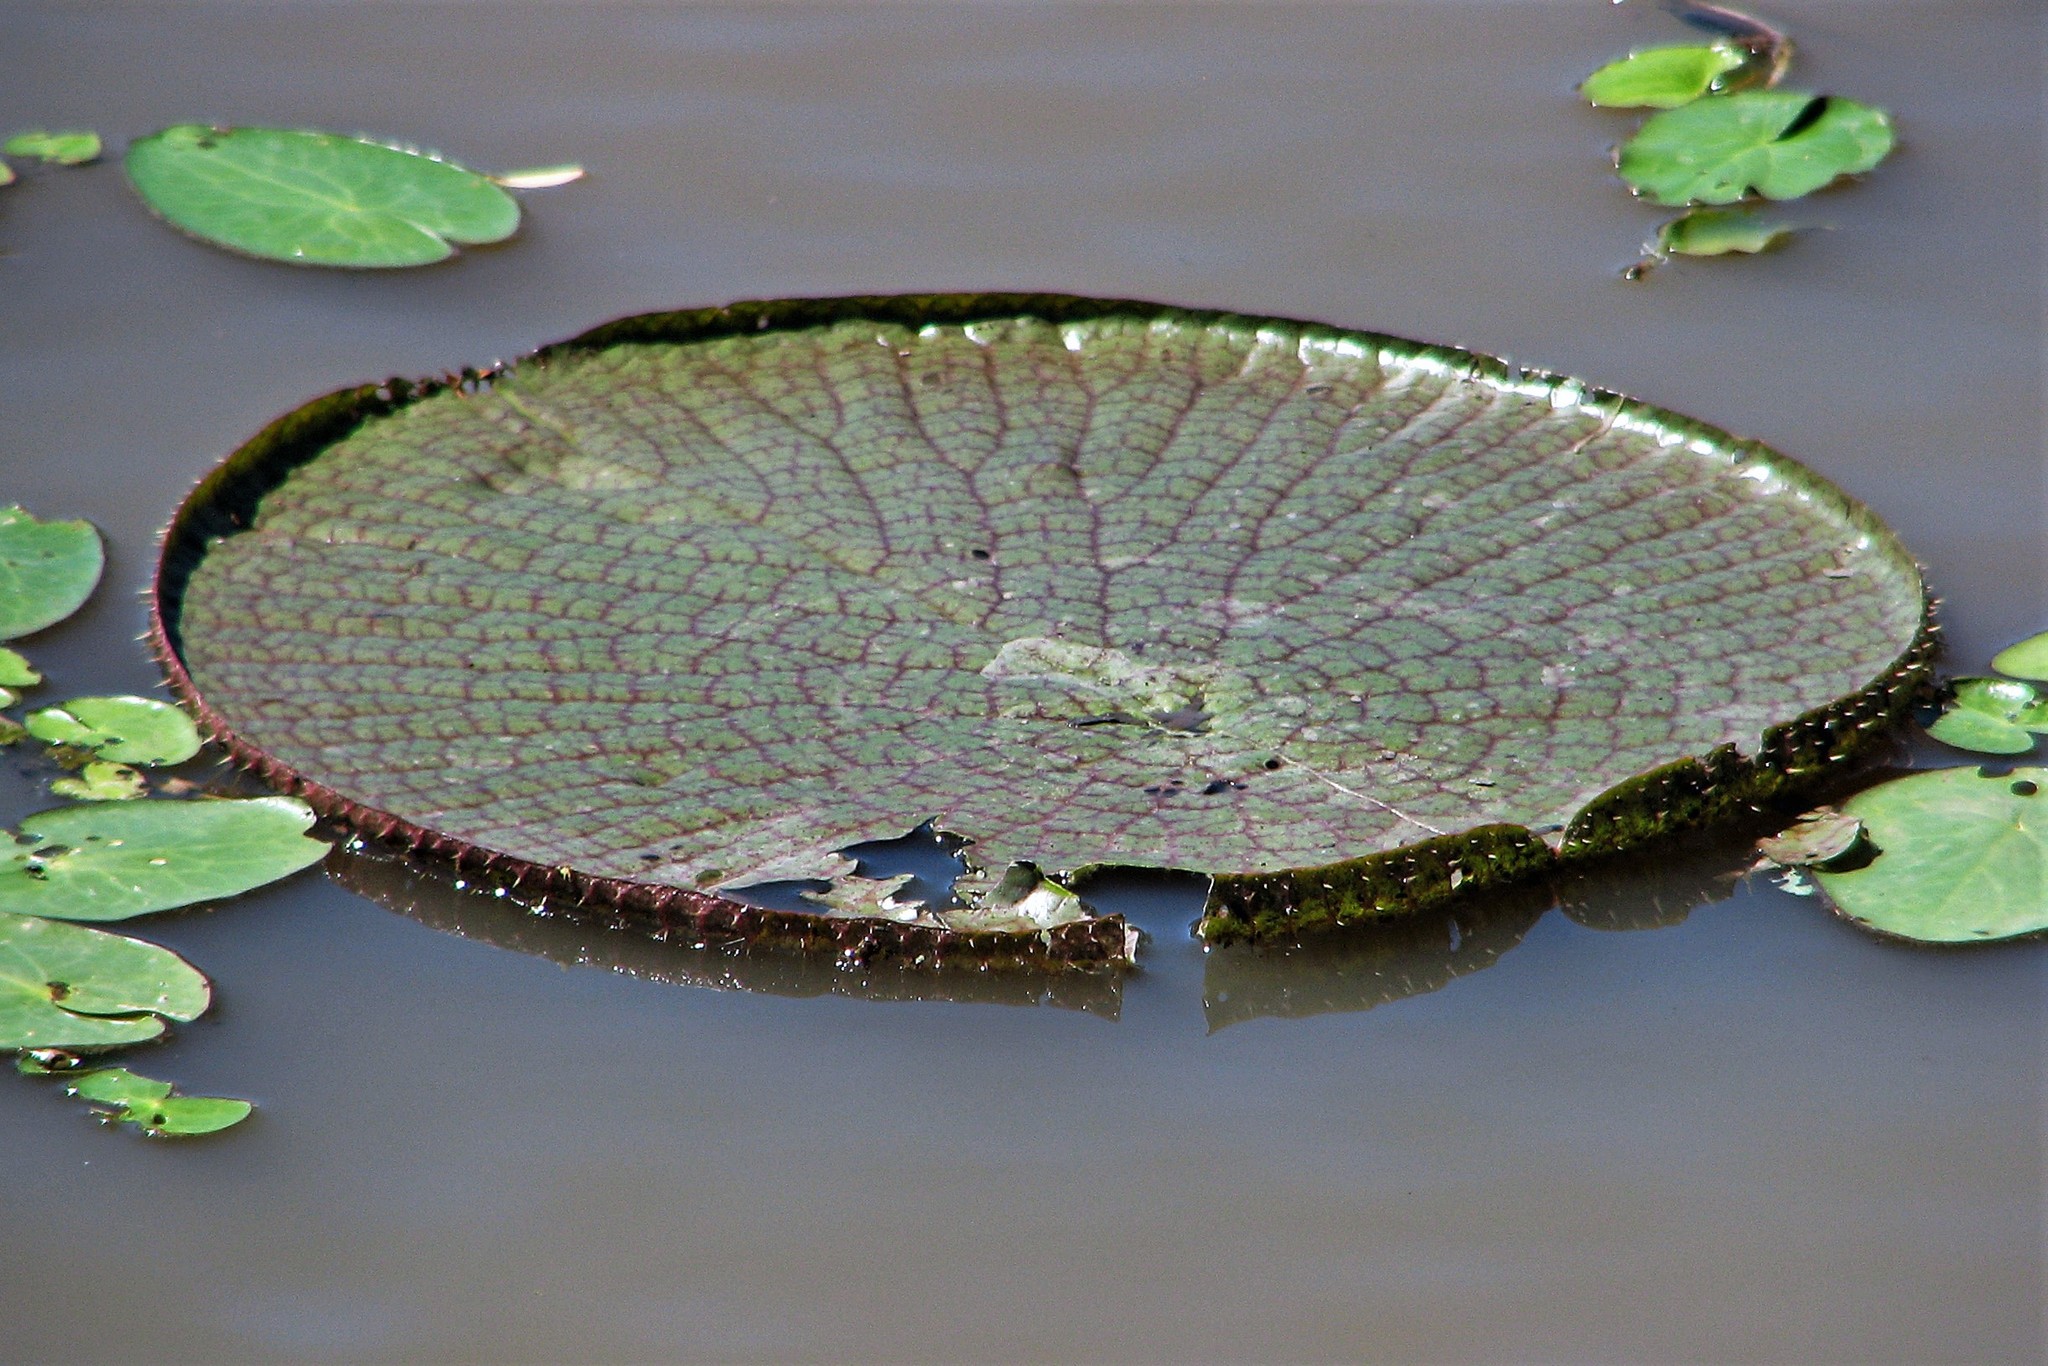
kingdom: Plantae
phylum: Tracheophyta
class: Magnoliopsida
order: Nymphaeales
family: Nymphaeaceae
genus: Victoria
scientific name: Victoria cruziana
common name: Santa cruz water-lily
